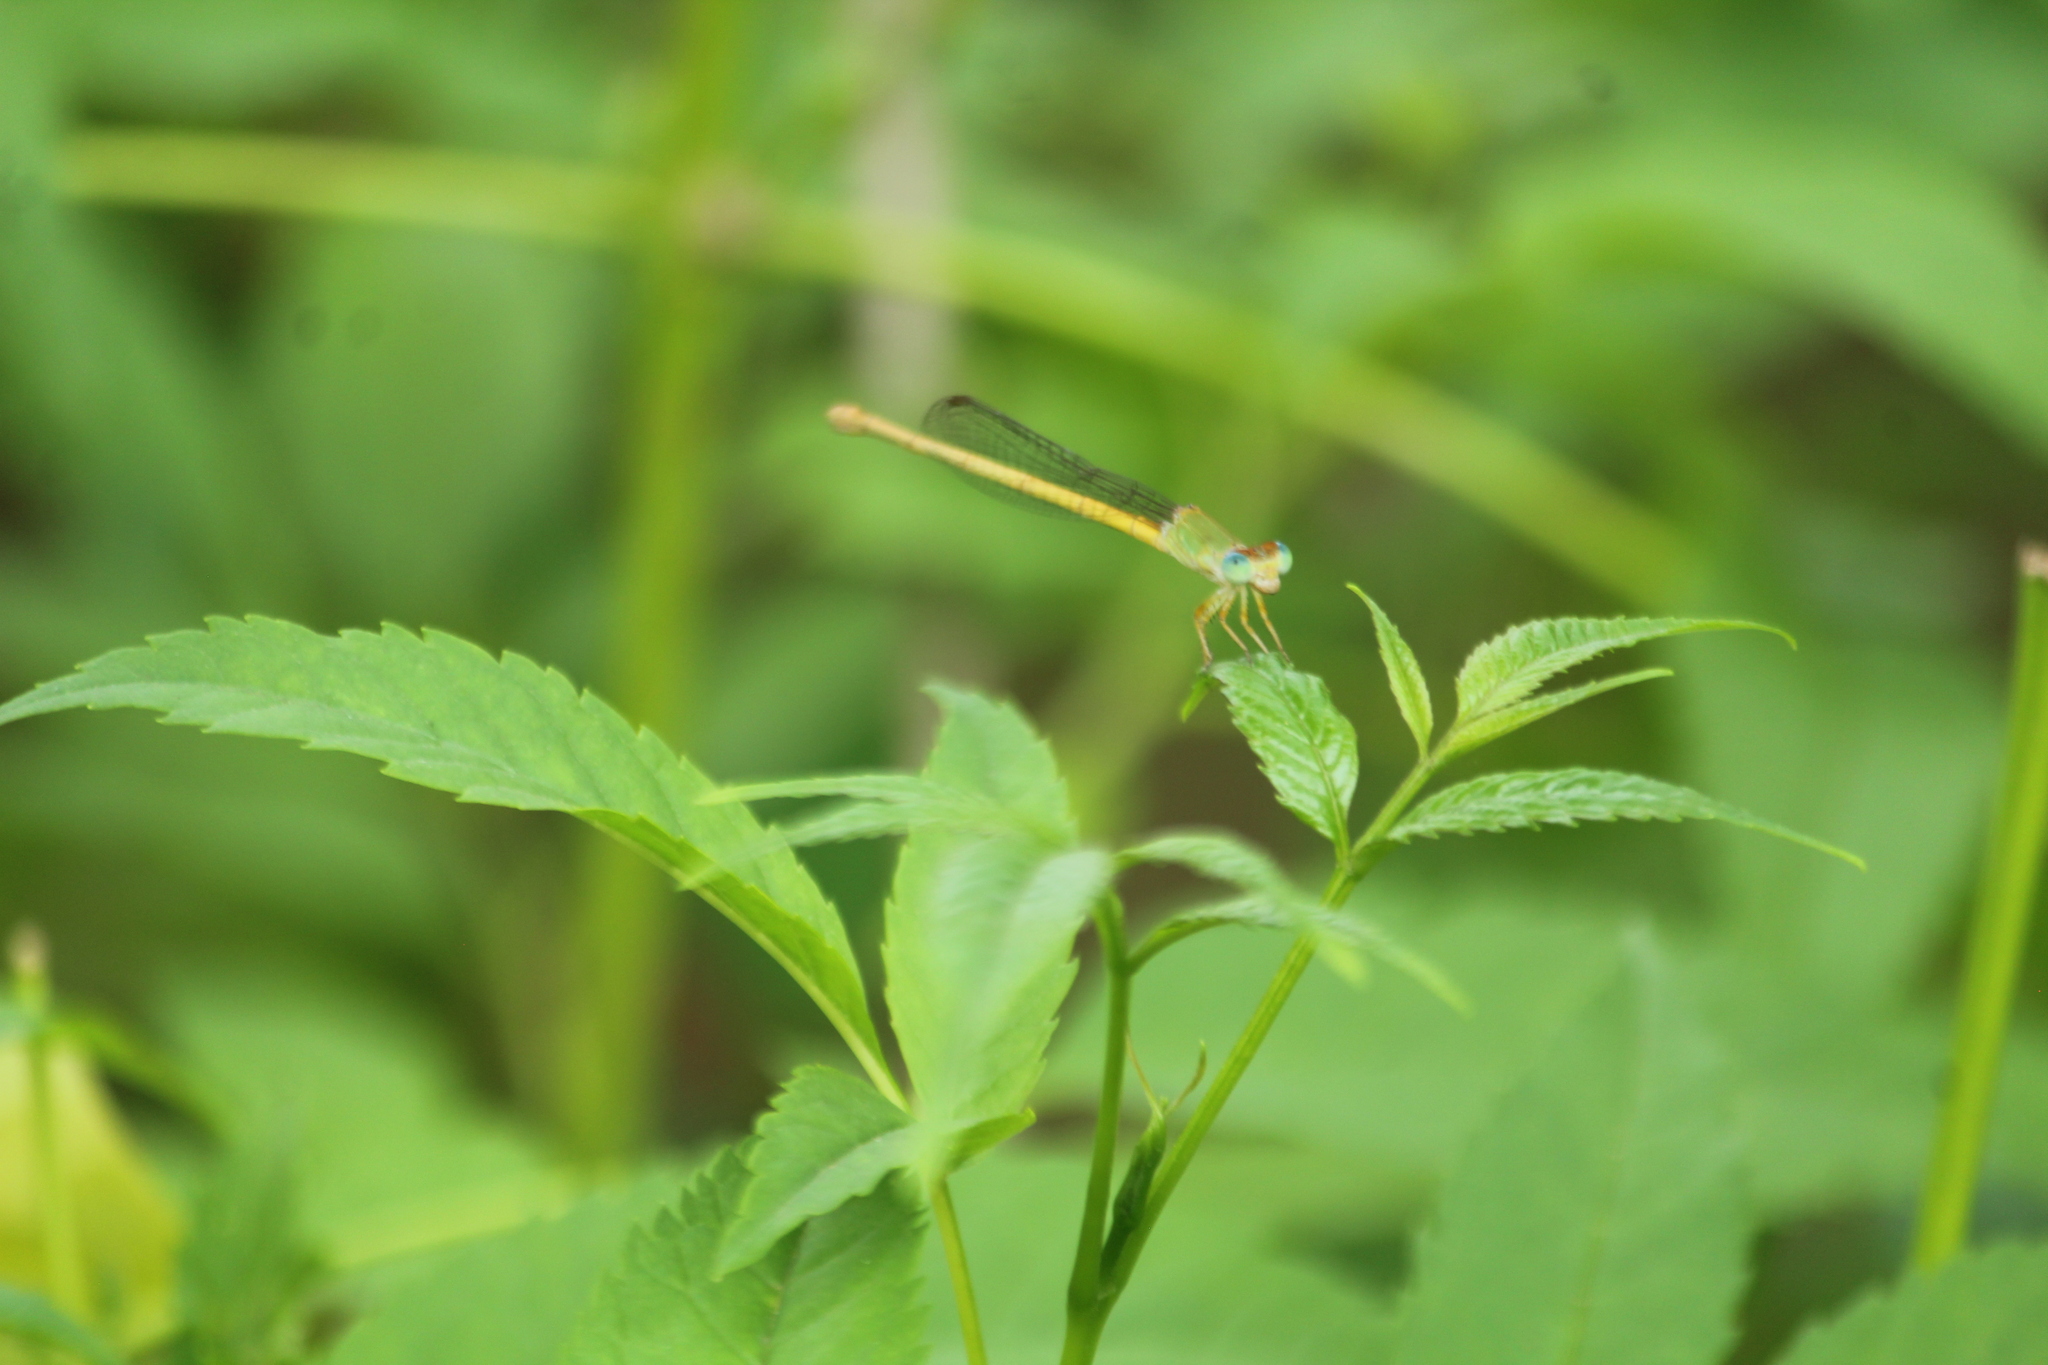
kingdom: Animalia
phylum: Arthropoda
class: Insecta
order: Odonata
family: Coenagrionidae
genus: Ceriagrion
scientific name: Ceriagrion coromandelianum
